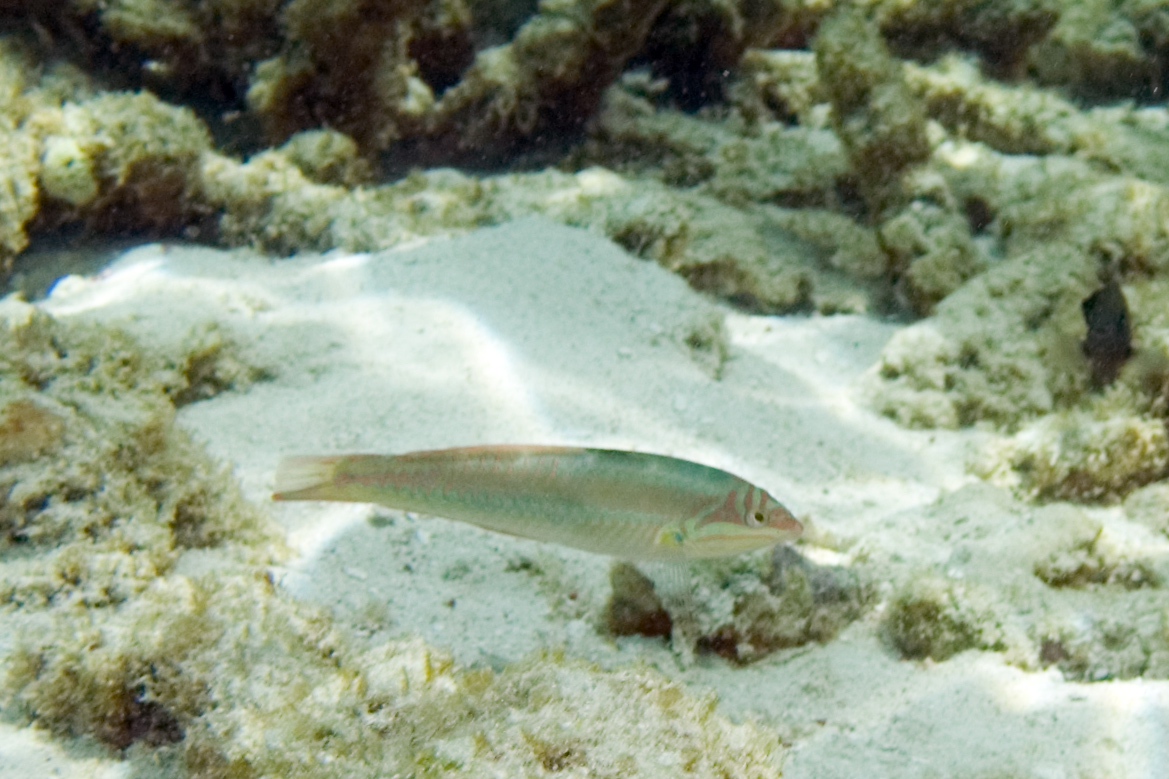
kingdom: Animalia
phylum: Chordata
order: Perciformes
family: Labridae
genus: Halichoeres
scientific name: Halichoeres maculipinna
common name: Clown wrasse
